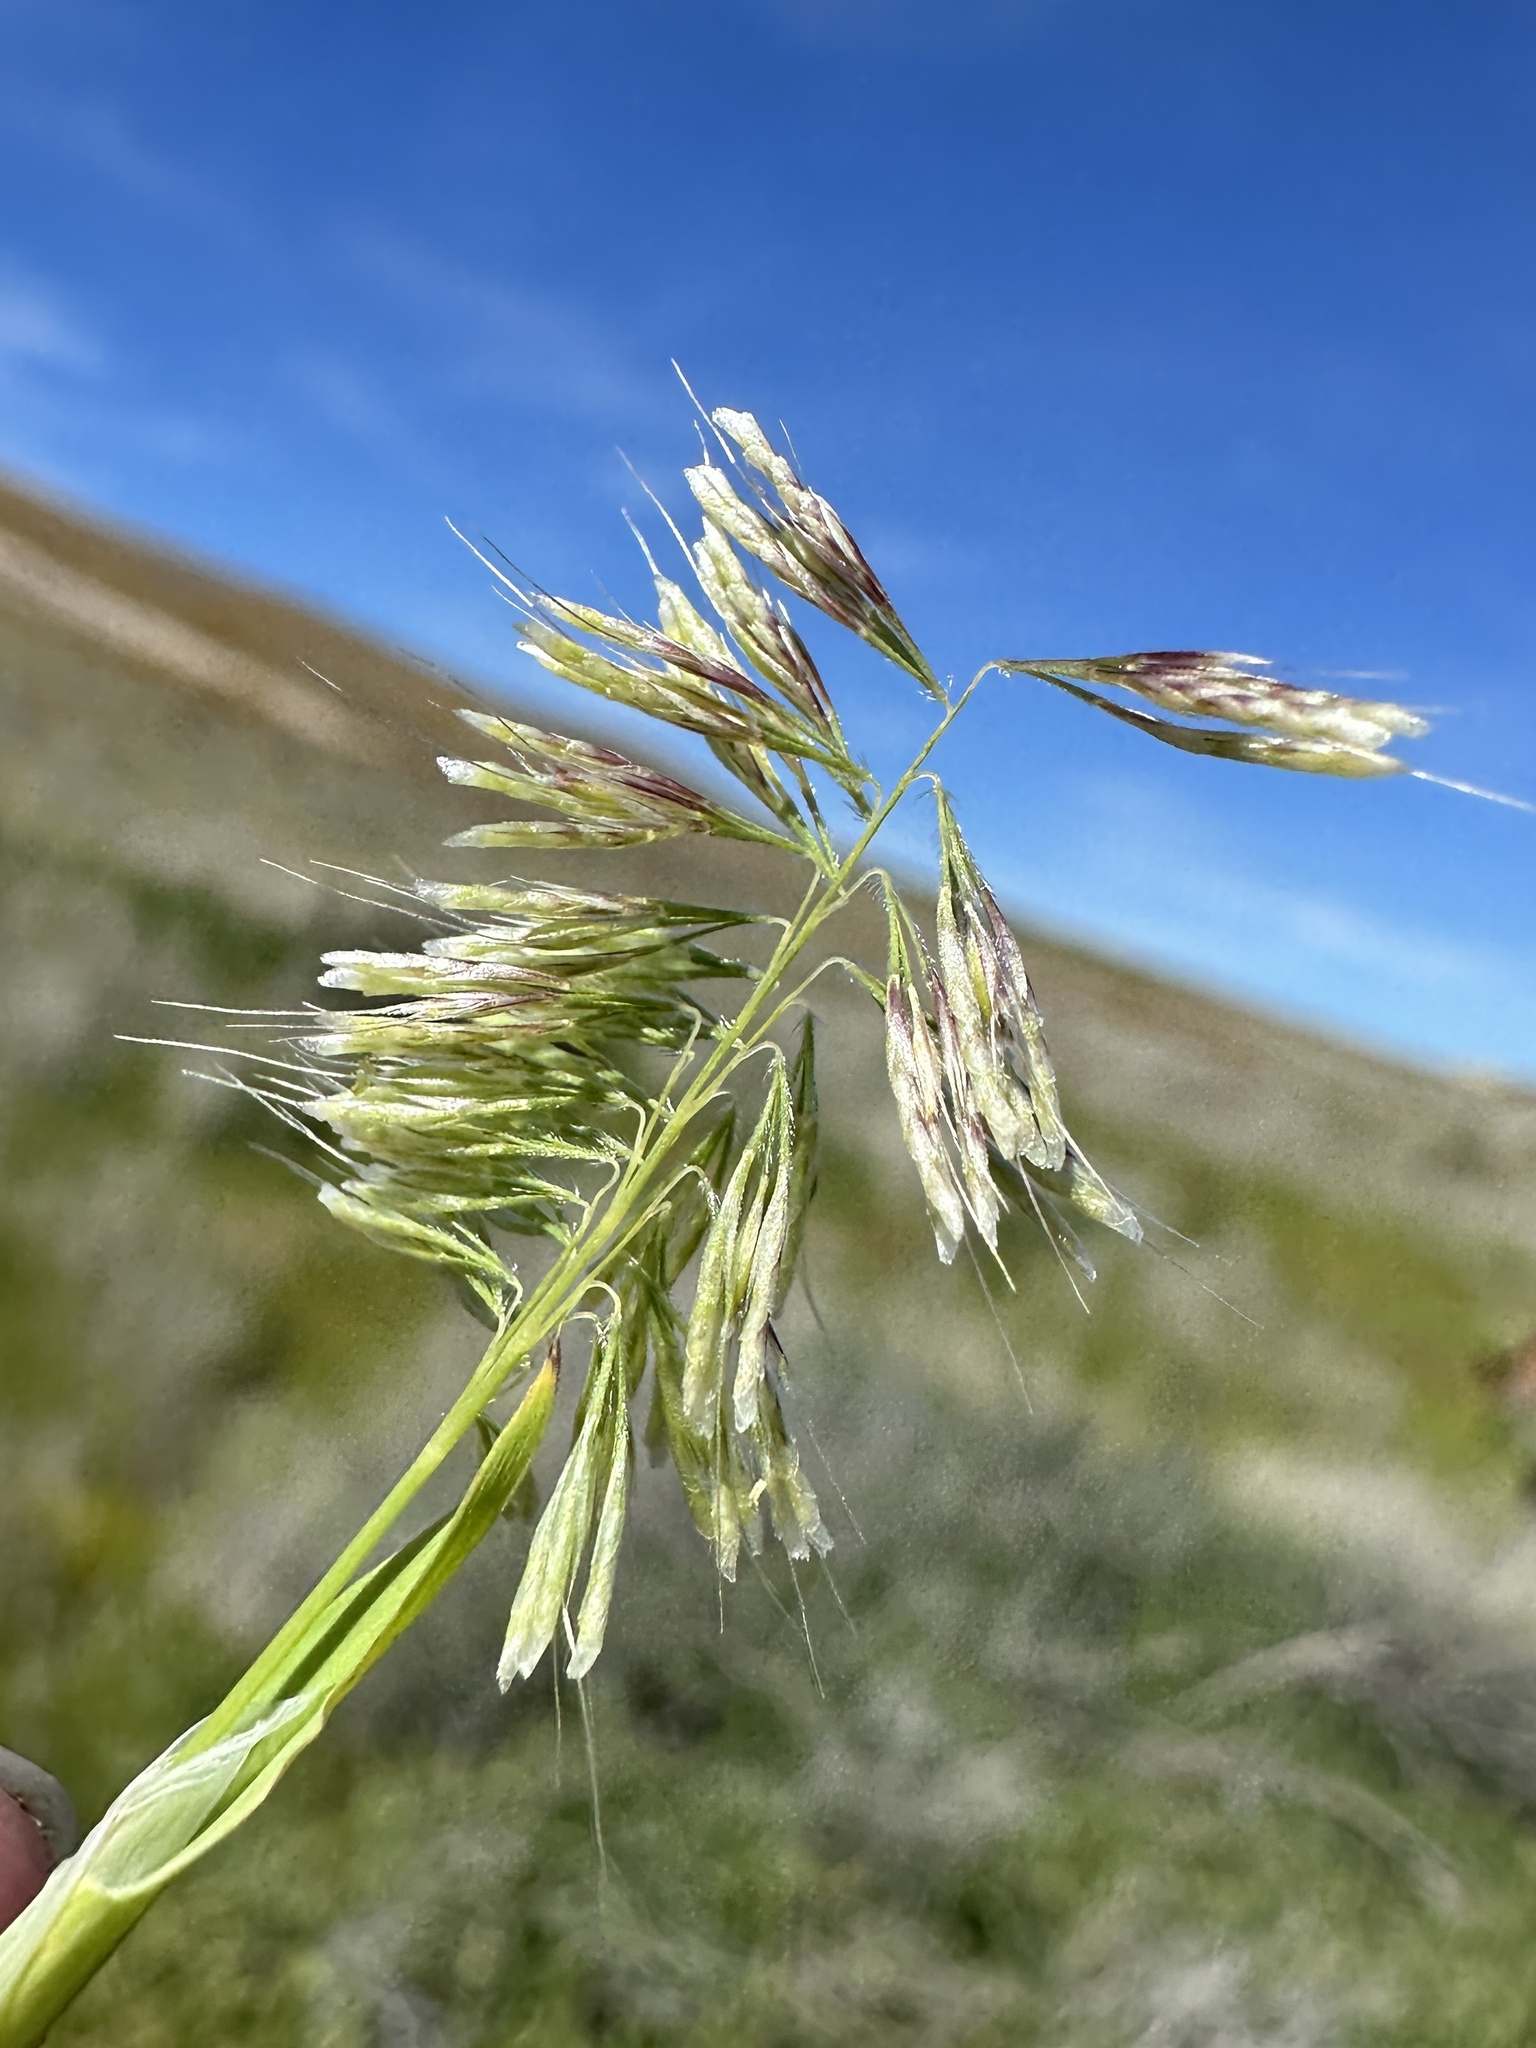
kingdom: Plantae
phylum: Tracheophyta
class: Liliopsida
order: Poales
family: Poaceae
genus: Lamarckia
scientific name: Lamarckia aurea
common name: Golden dog's-tail
